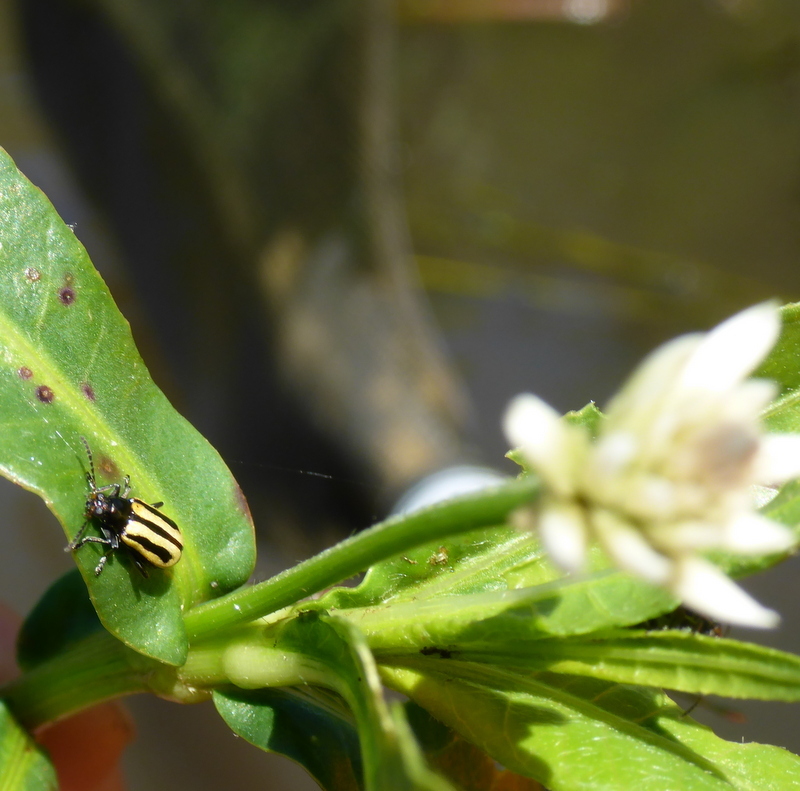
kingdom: Animalia
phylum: Arthropoda
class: Insecta
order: Coleoptera
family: Chrysomelidae
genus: Agasicles
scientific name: Agasicles hygrophila
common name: Alligatorweed flea beetle
